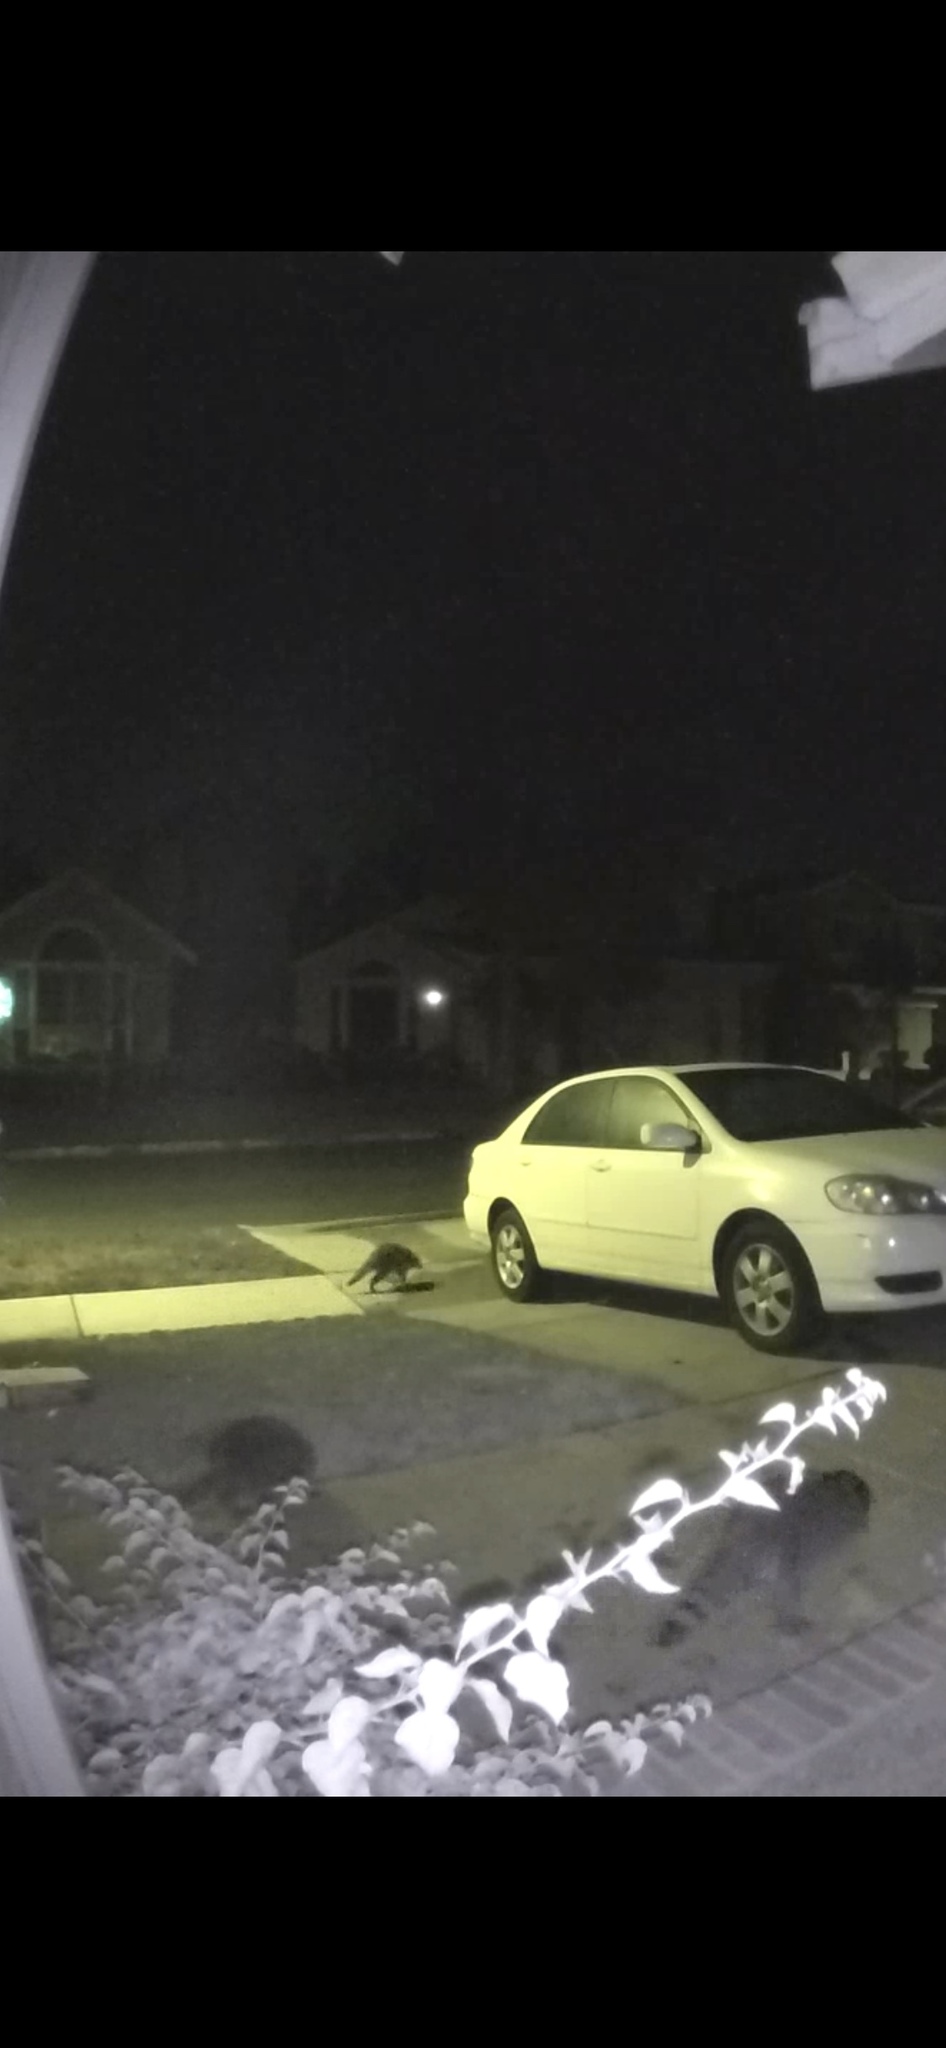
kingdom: Animalia
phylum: Chordata
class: Mammalia
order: Carnivora
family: Procyonidae
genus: Procyon
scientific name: Procyon lotor
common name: Raccoon
